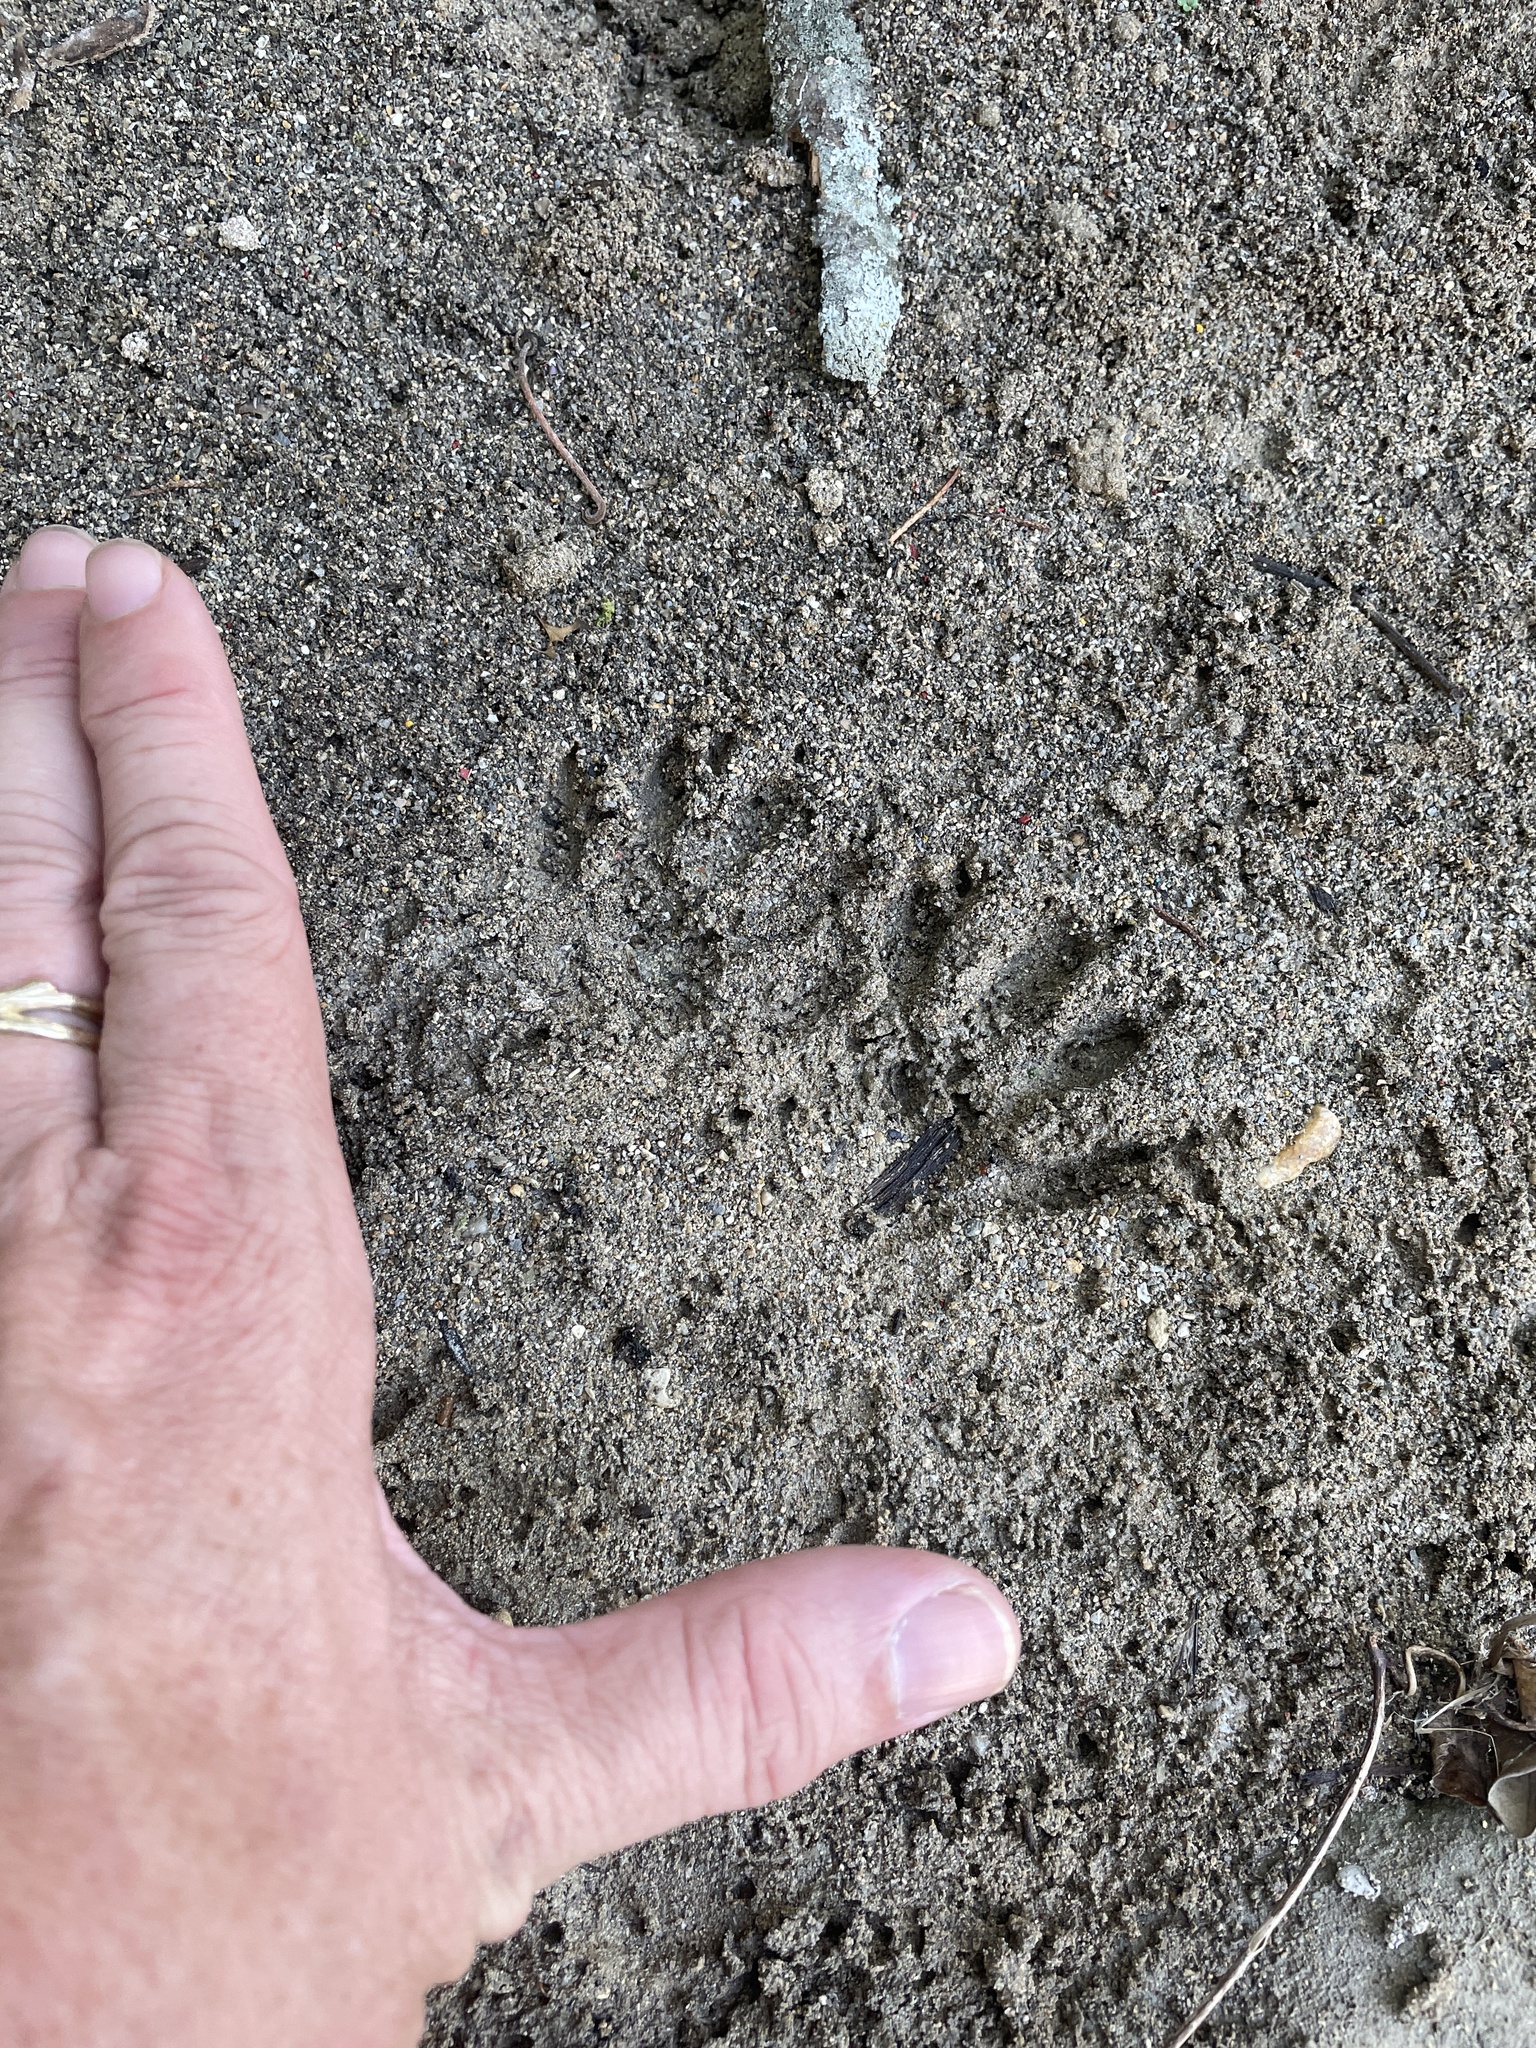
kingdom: Animalia
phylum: Chordata
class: Mammalia
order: Carnivora
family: Procyonidae
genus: Procyon
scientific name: Procyon lotor
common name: Raccoon
